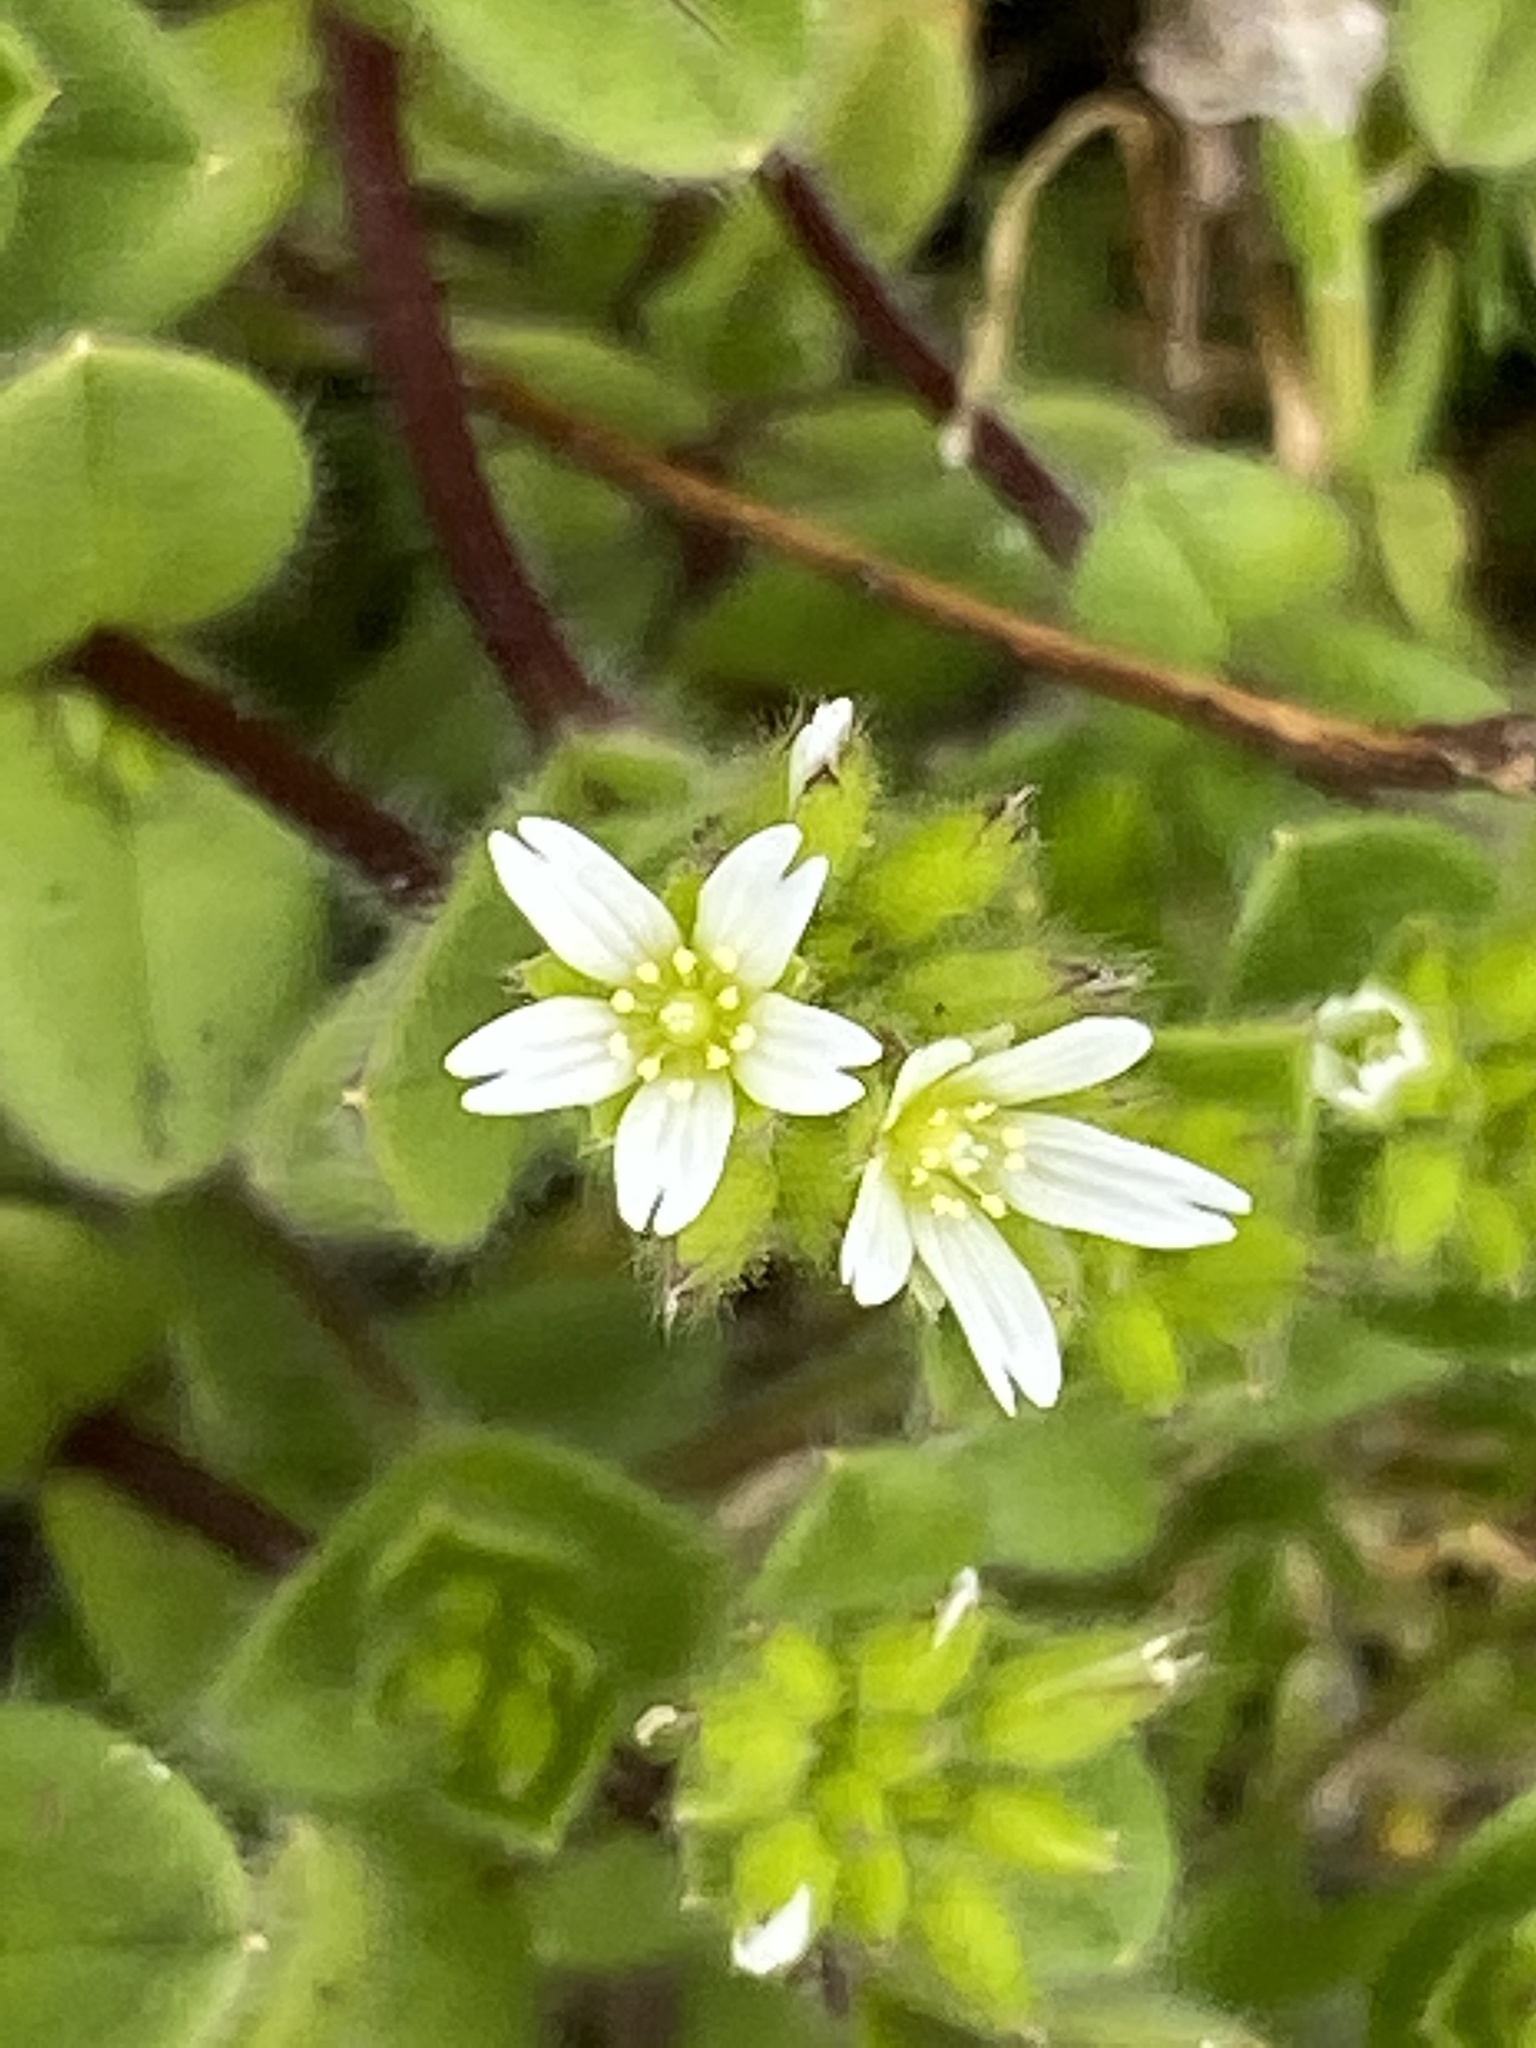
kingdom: Plantae
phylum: Tracheophyta
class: Magnoliopsida
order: Caryophyllales
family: Caryophyllaceae
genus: Cerastium
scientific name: Cerastium glomeratum
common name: Sticky chickweed
